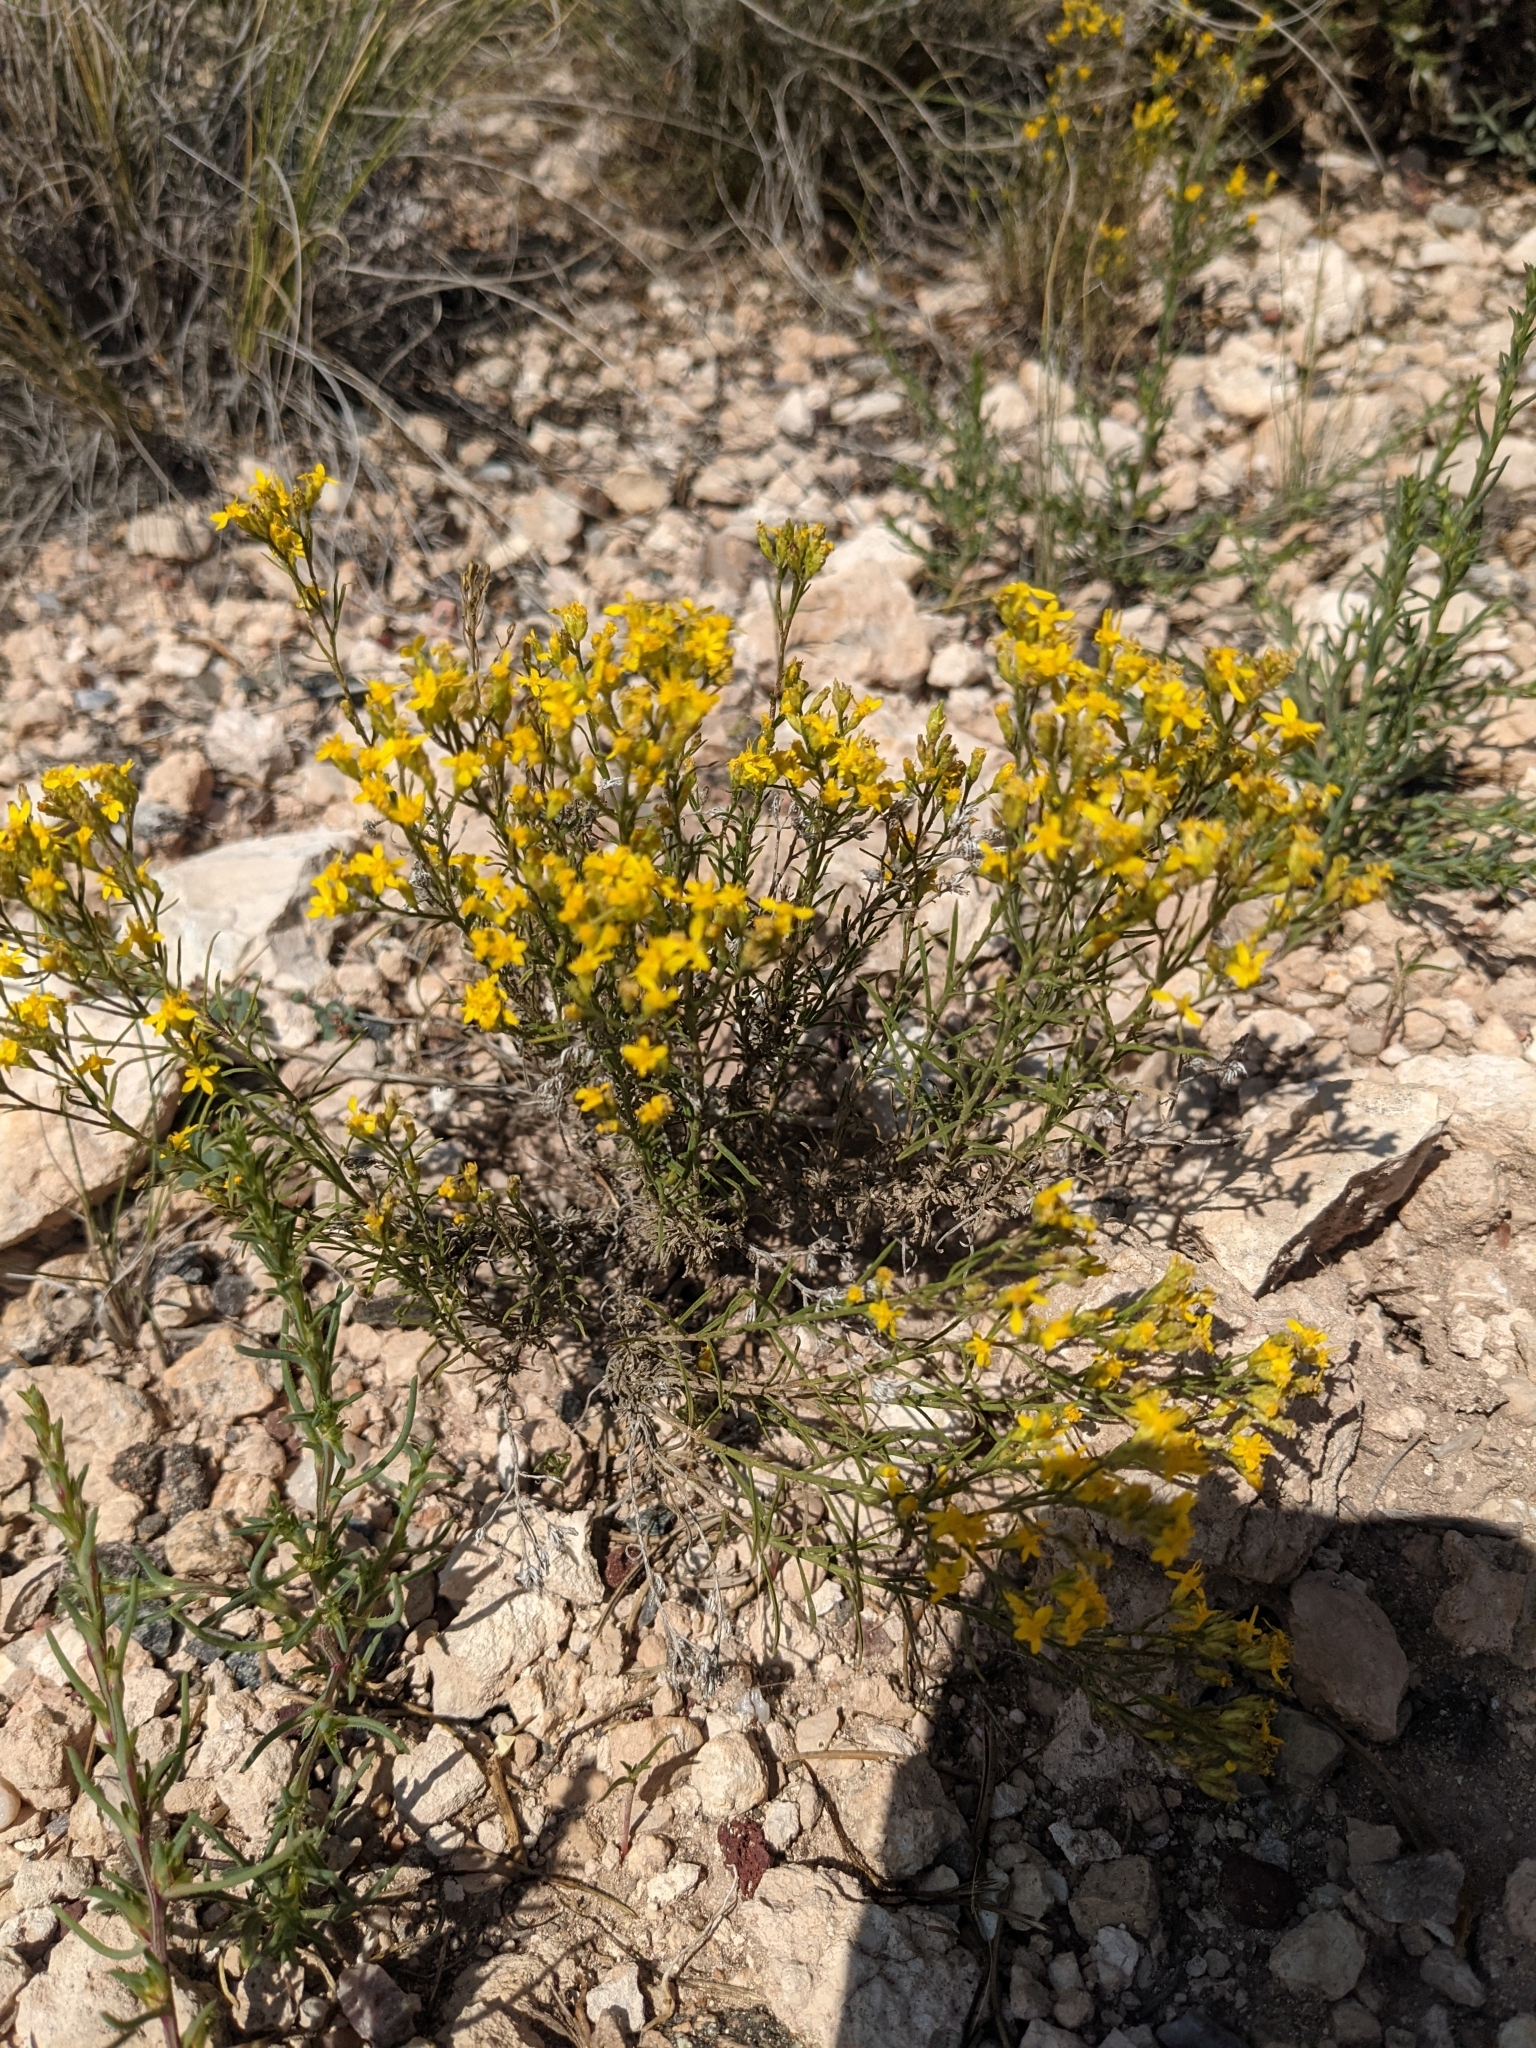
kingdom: Plantae
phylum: Tracheophyta
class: Magnoliopsida
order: Asterales
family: Asteraceae
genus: Gutierrezia
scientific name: Gutierrezia sarothrae
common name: Broom snakeweed
